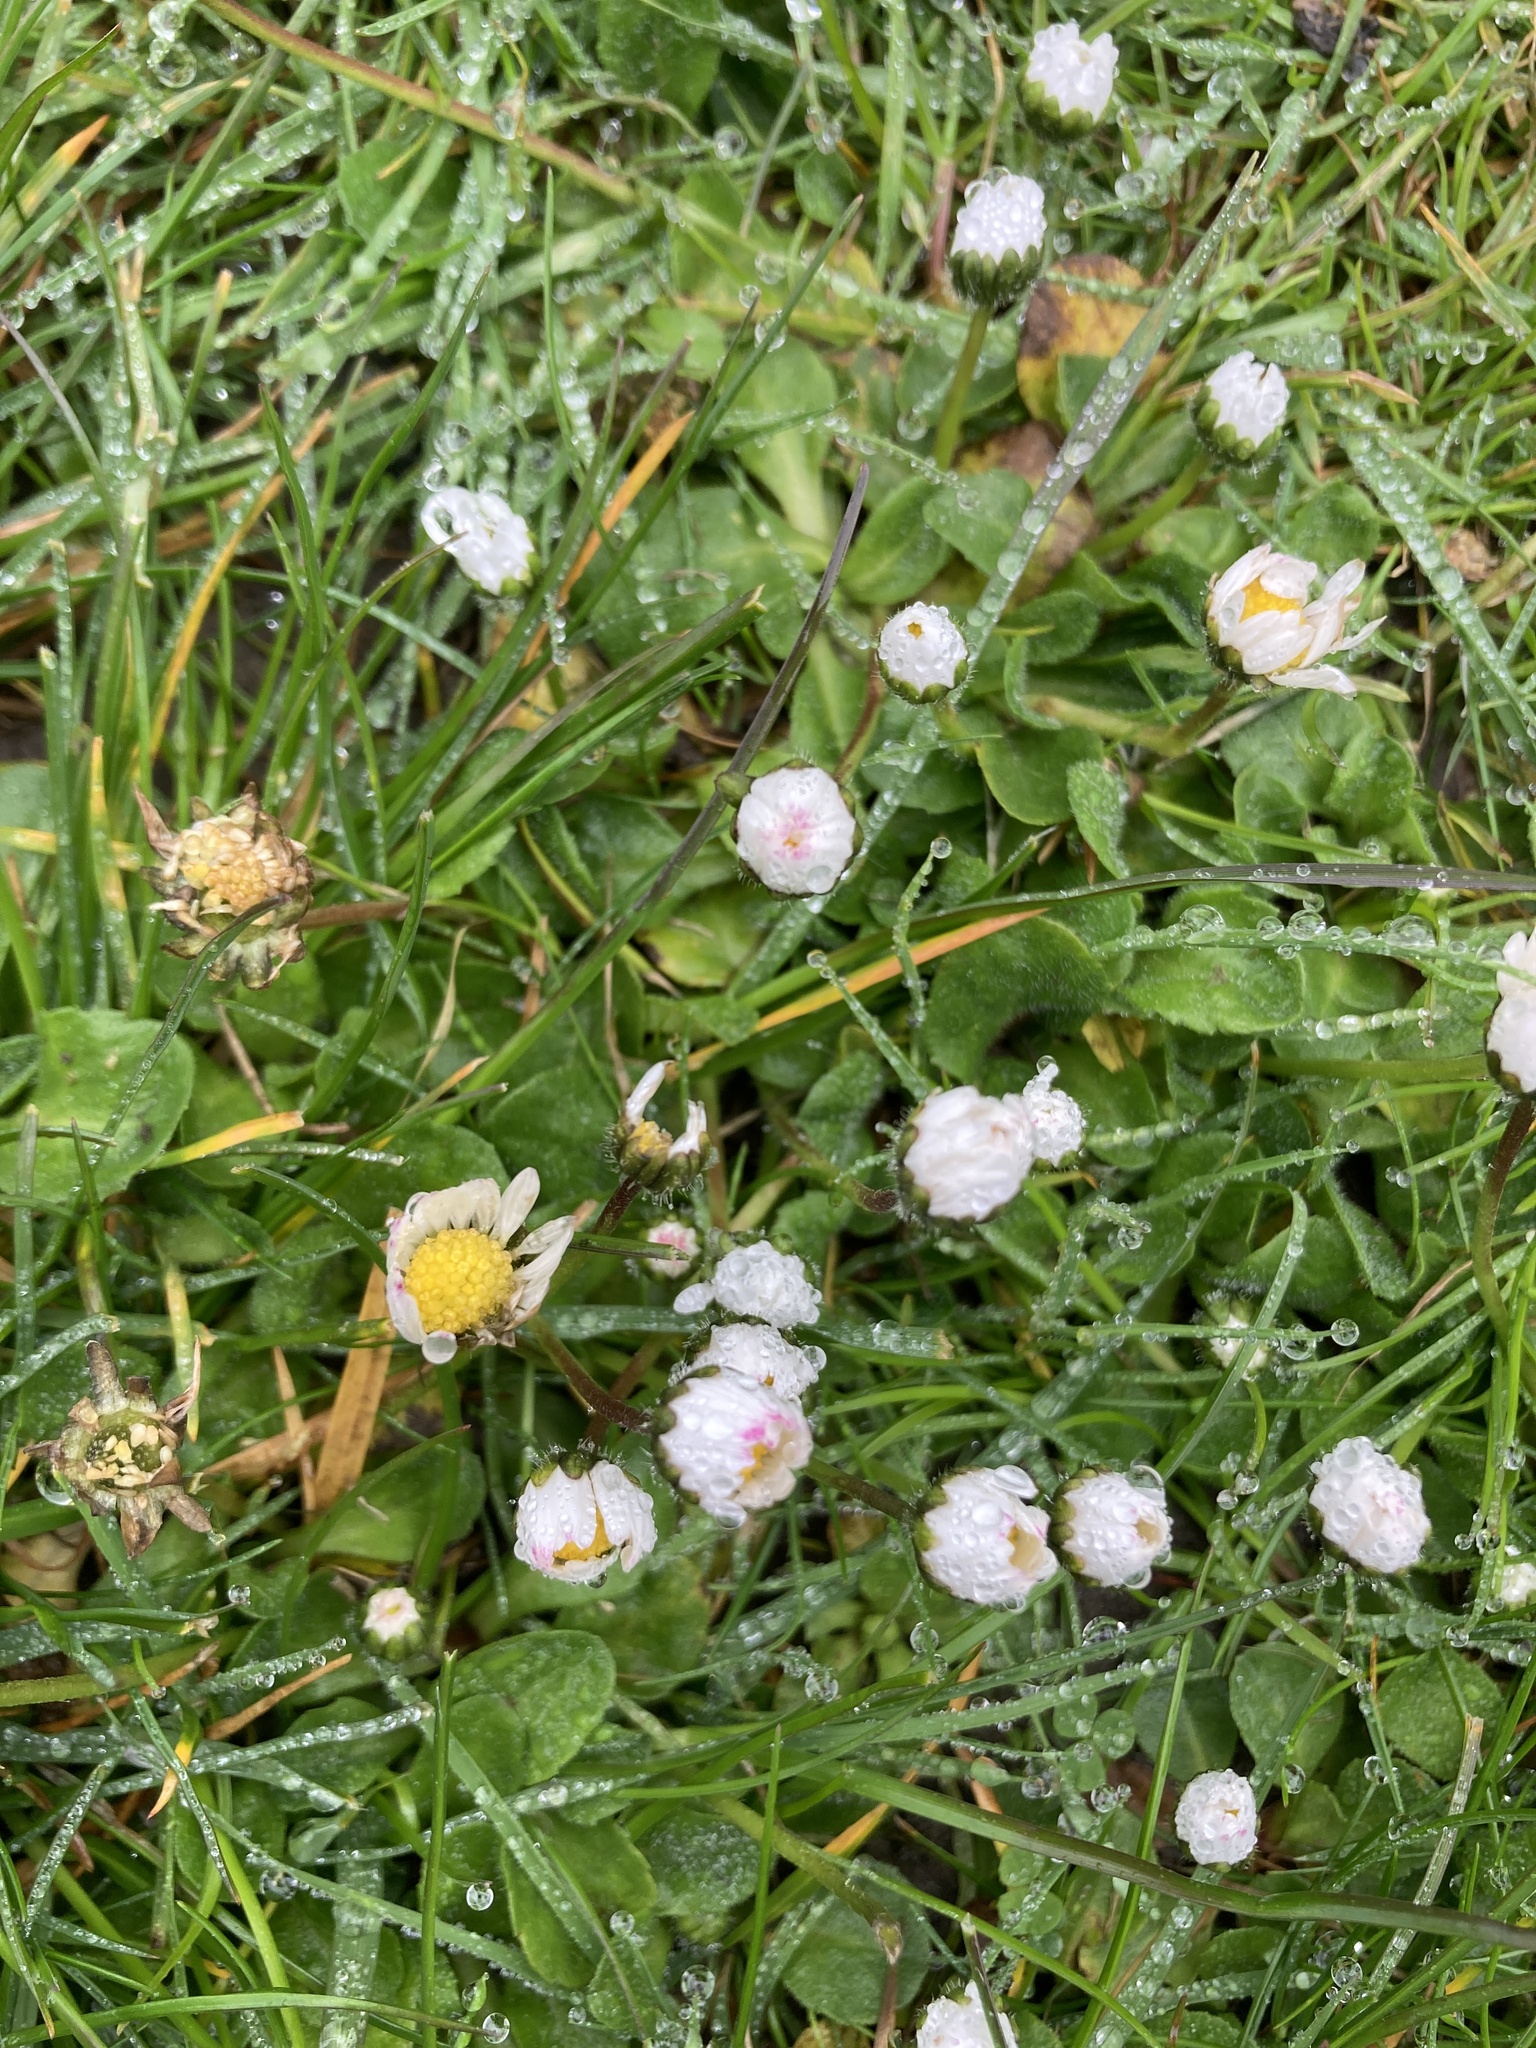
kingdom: Plantae
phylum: Tracheophyta
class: Magnoliopsida
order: Asterales
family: Asteraceae
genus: Bellis
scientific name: Bellis perennis
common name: Lawndaisy
